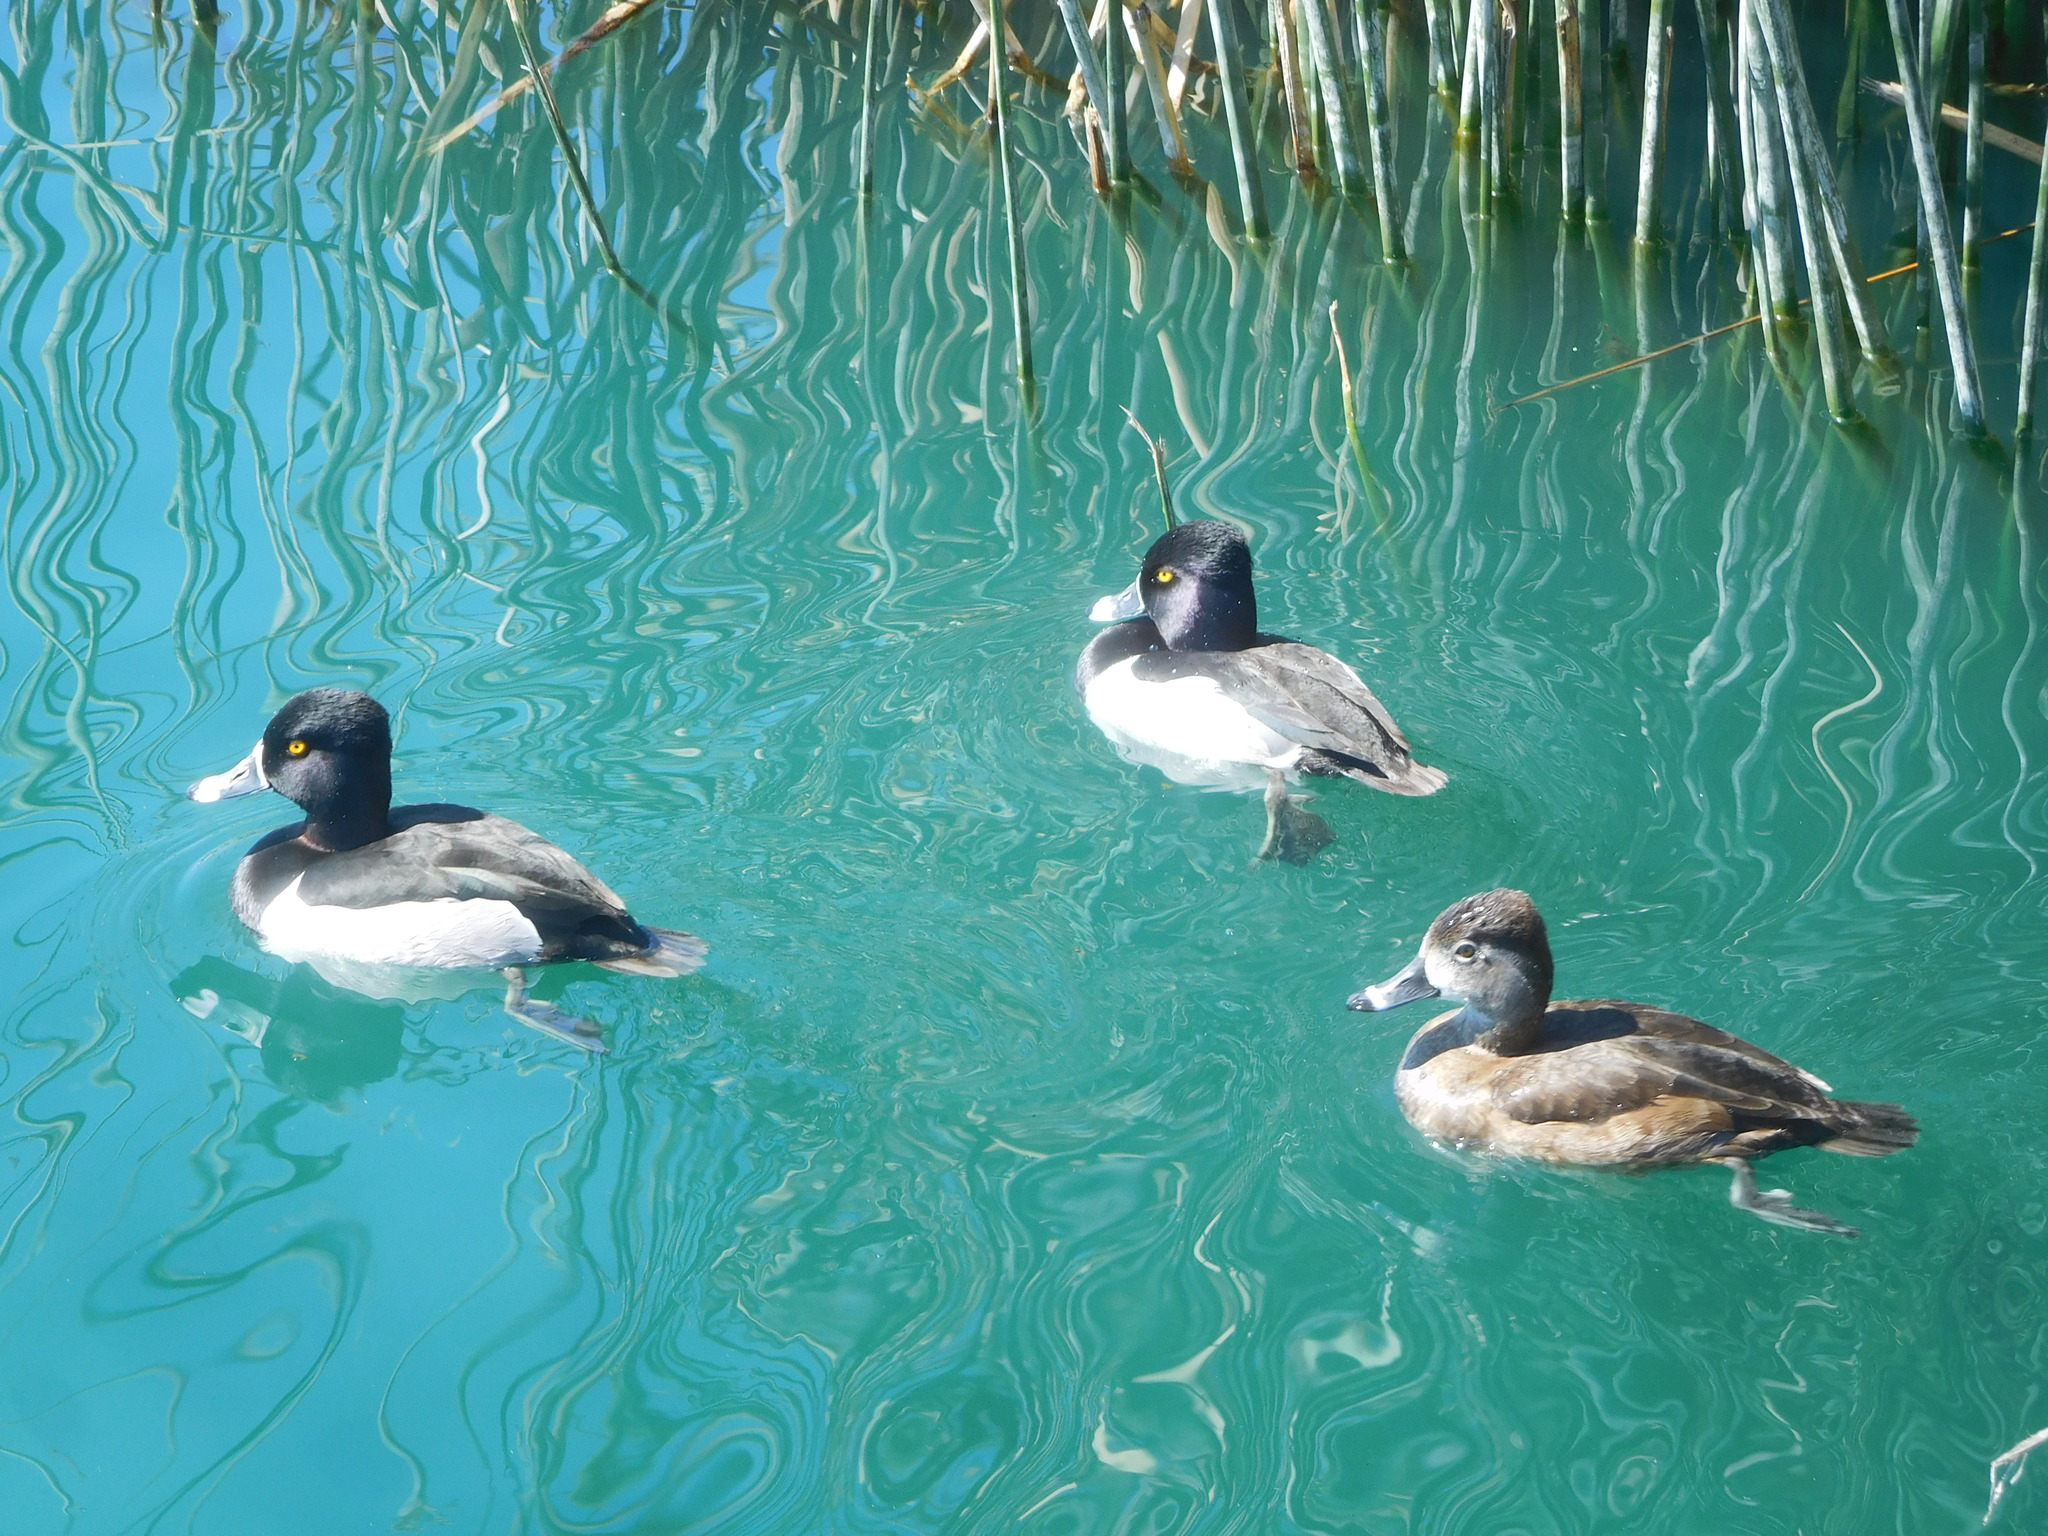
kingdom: Animalia
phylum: Chordata
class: Aves
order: Anseriformes
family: Anatidae
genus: Aythya
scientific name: Aythya collaris
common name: Ring-necked duck
